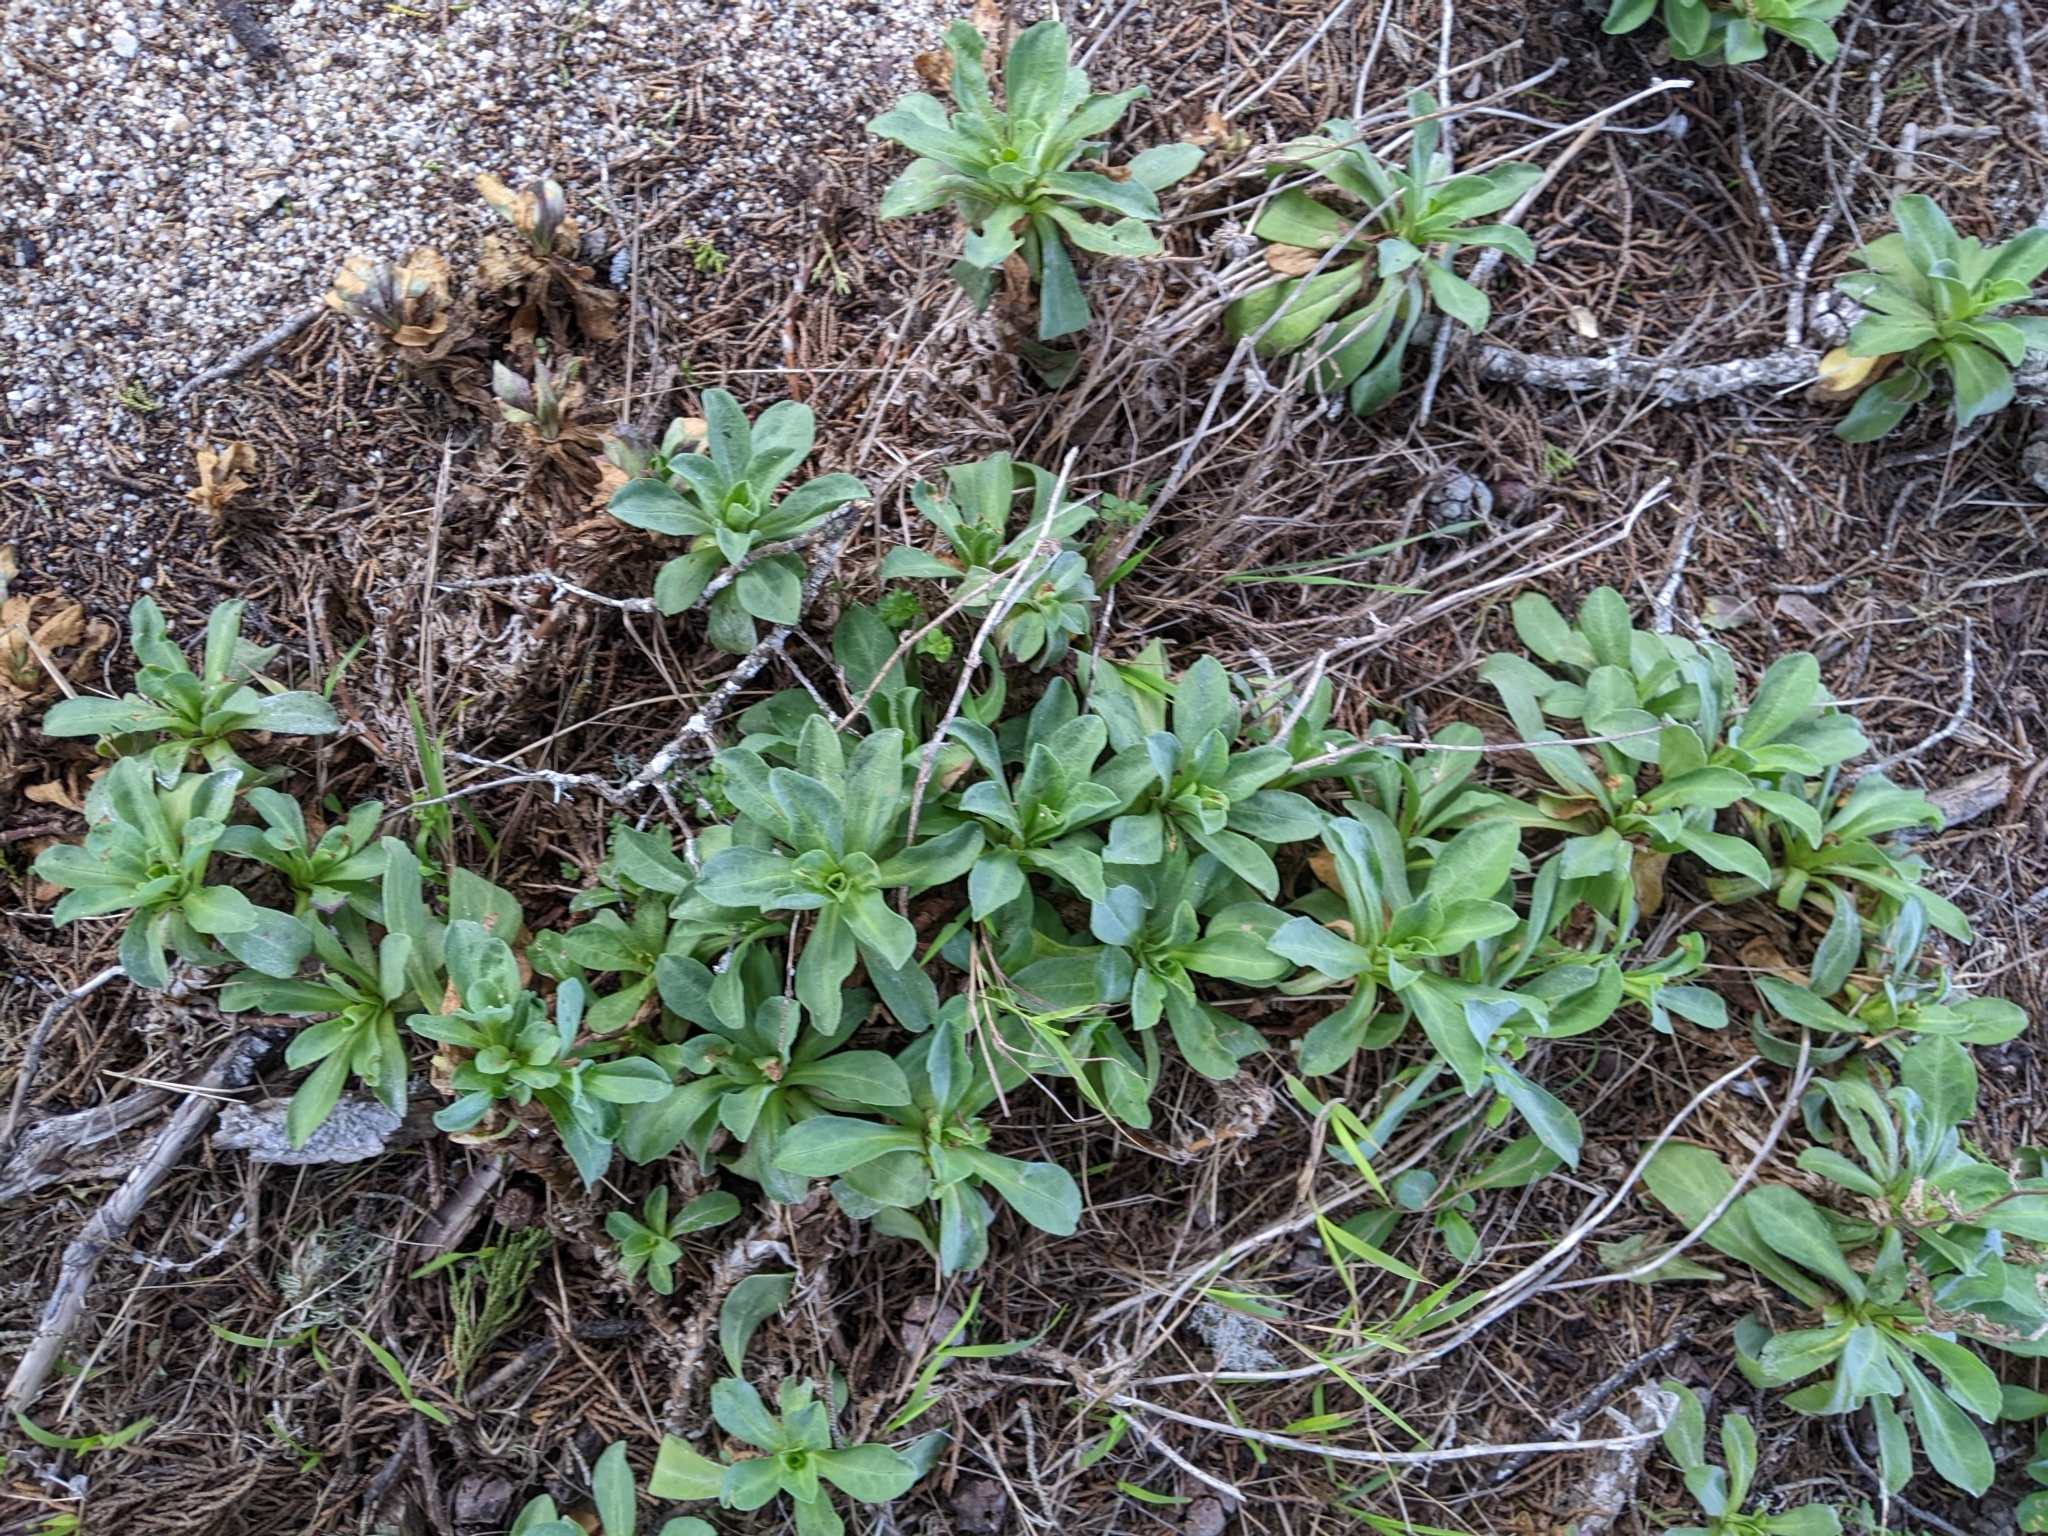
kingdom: Plantae
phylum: Tracheophyta
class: Magnoliopsida
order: Asterales
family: Asteraceae
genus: Erigeron
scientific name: Erigeron glaucus
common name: Seaside daisy
